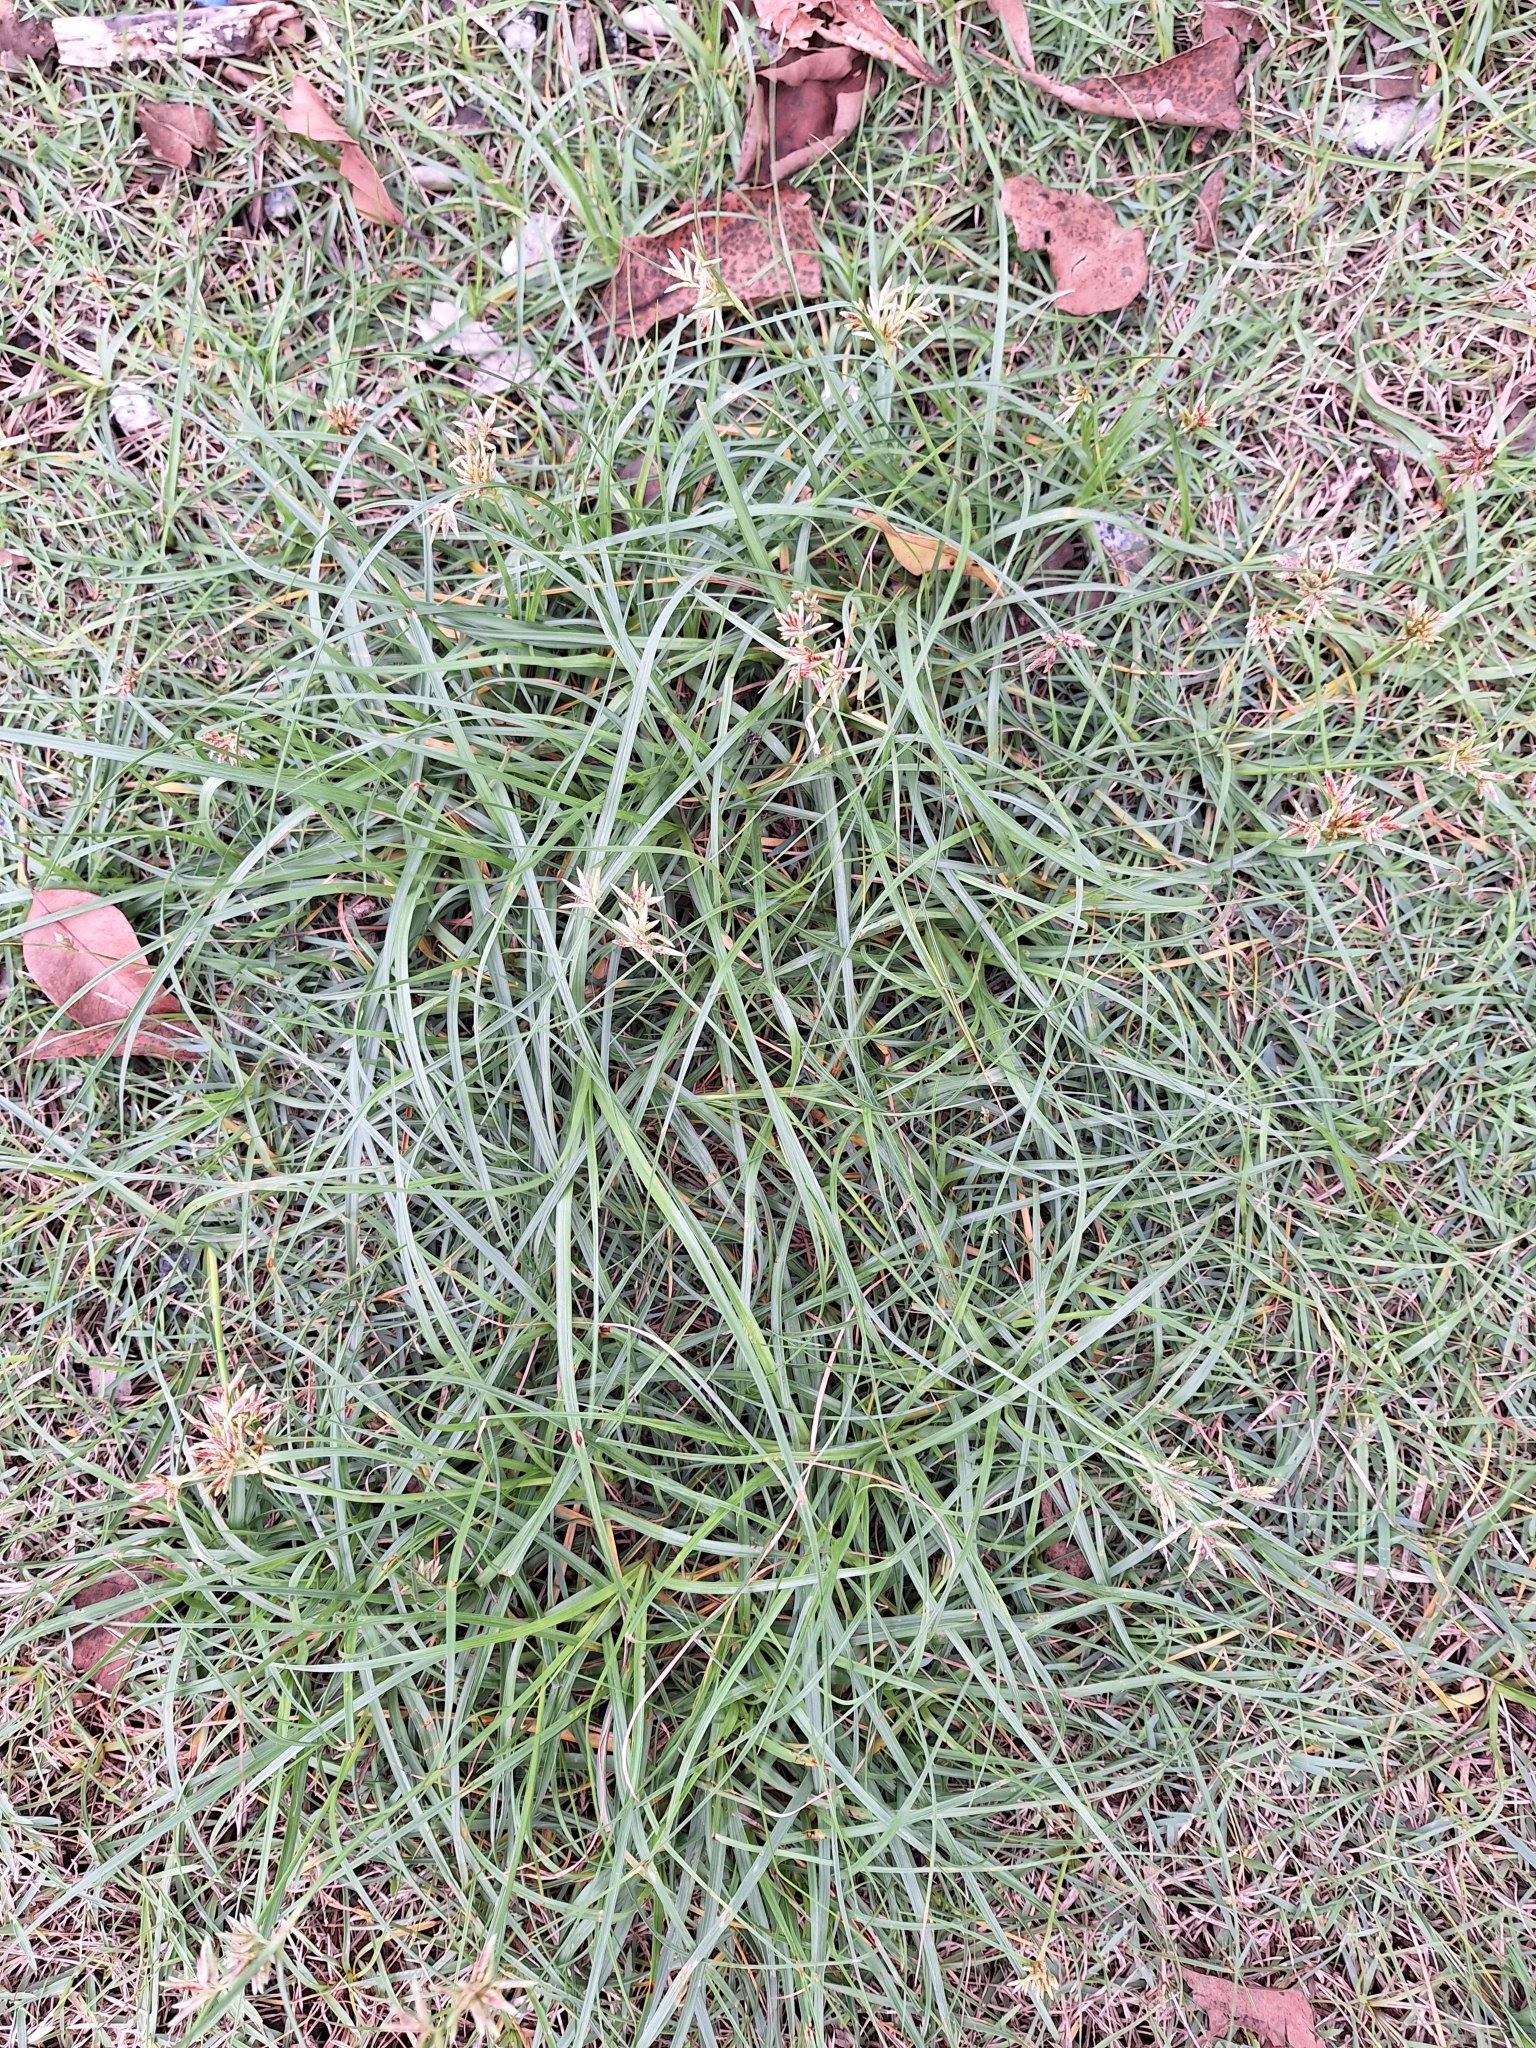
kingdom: Plantae
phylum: Tracheophyta
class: Liliopsida
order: Poales
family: Cyperaceae
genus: Cyperus
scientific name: Cyperus rotundus
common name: Nutgrass
